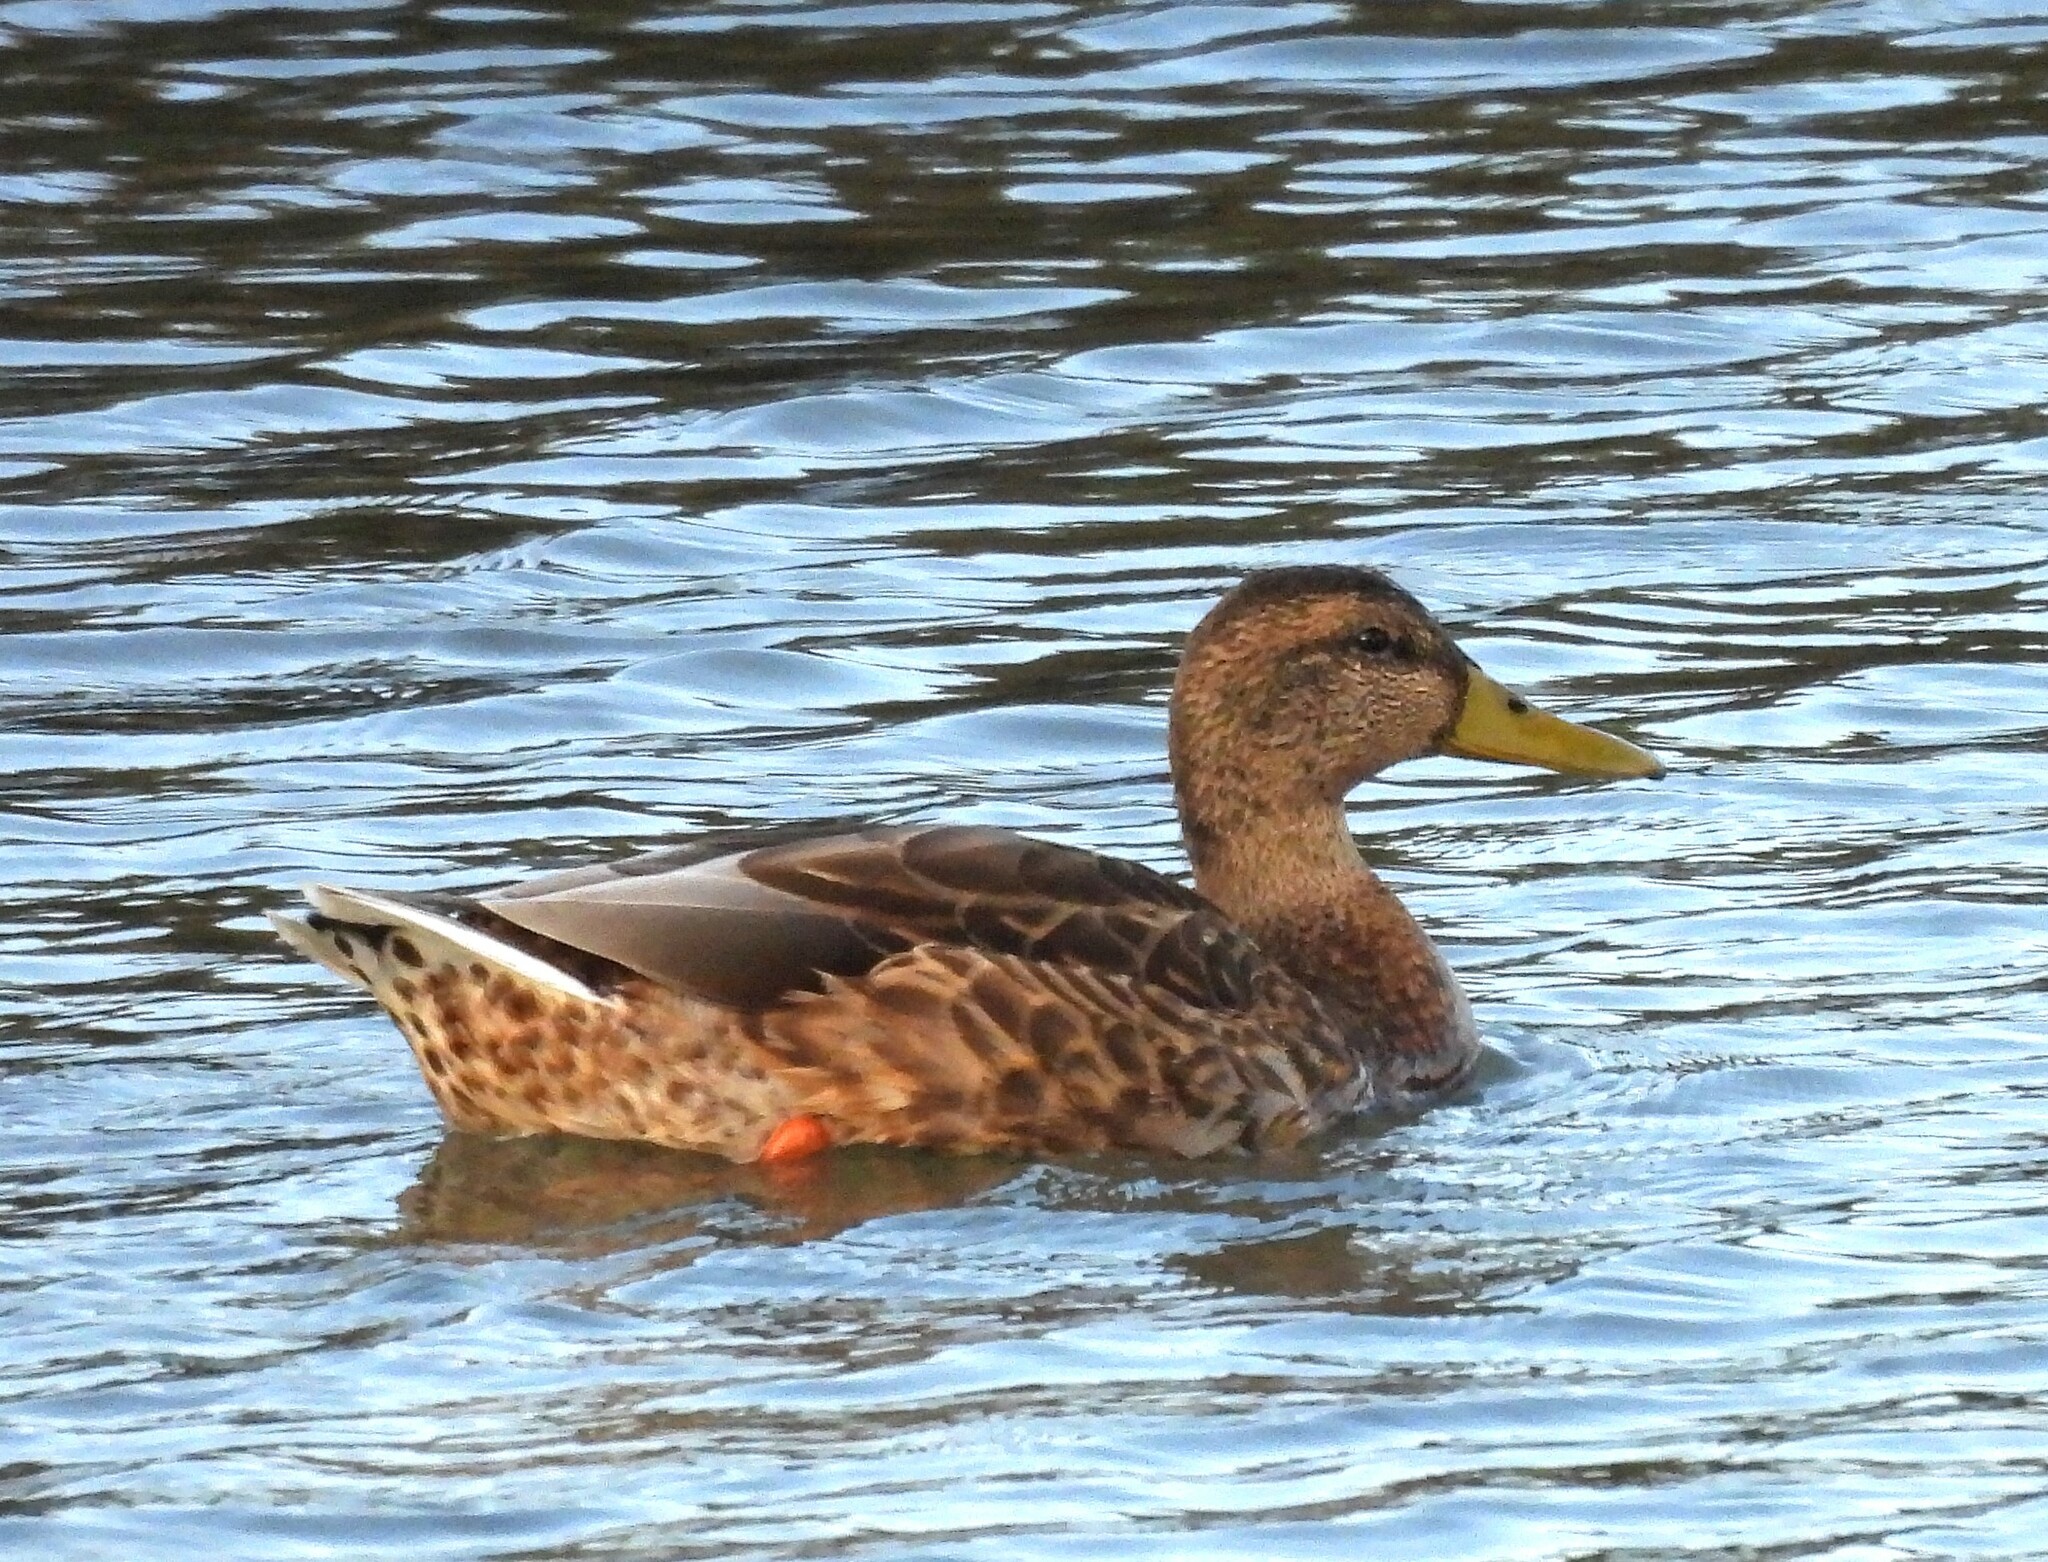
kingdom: Animalia
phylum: Chordata
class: Aves
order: Anseriformes
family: Anatidae
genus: Anas
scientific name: Anas platyrhynchos
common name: Mallard
